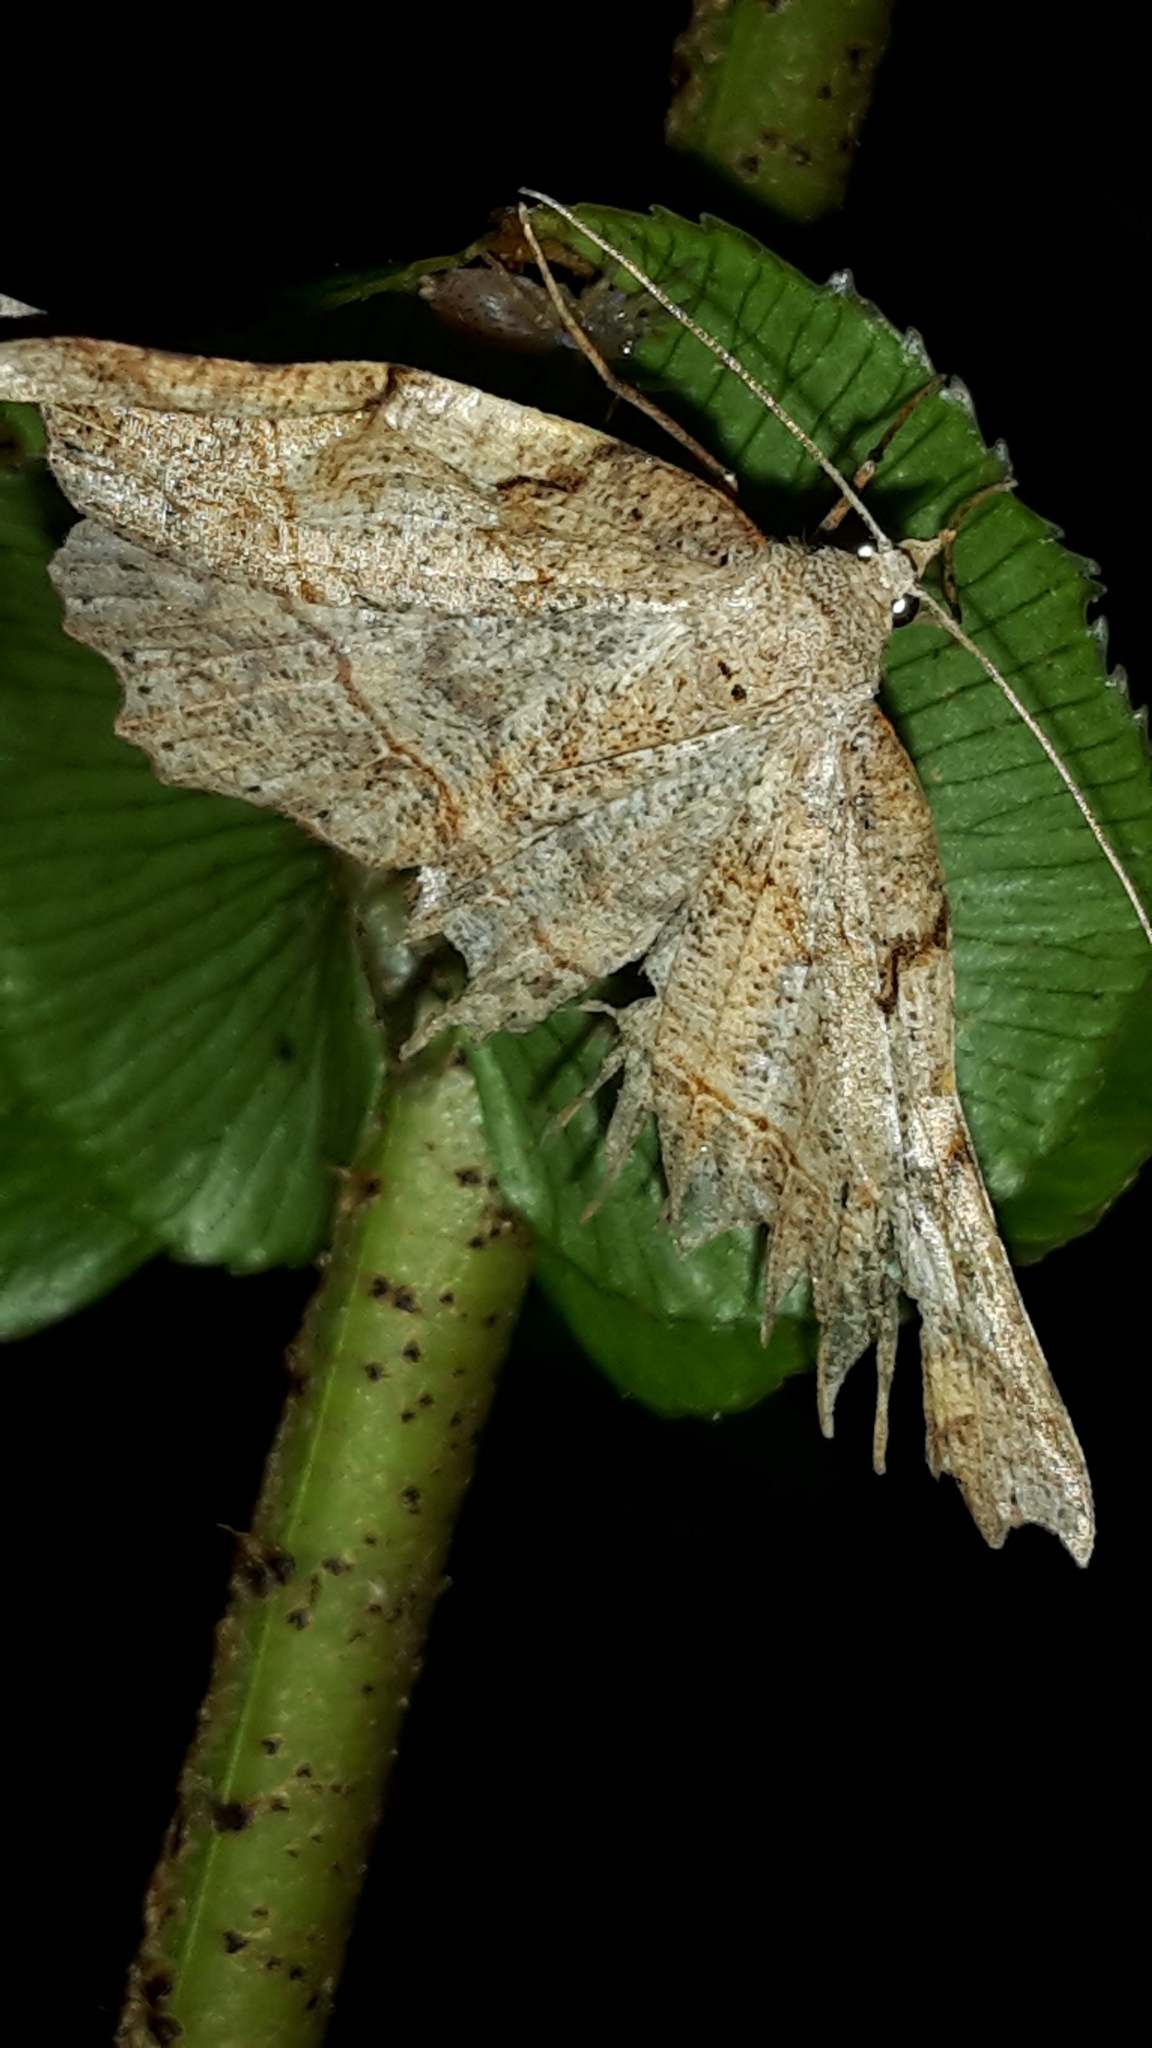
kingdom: Animalia
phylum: Arthropoda
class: Insecta
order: Lepidoptera
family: Geometridae
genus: Ischalis
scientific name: Ischalis gallaria
